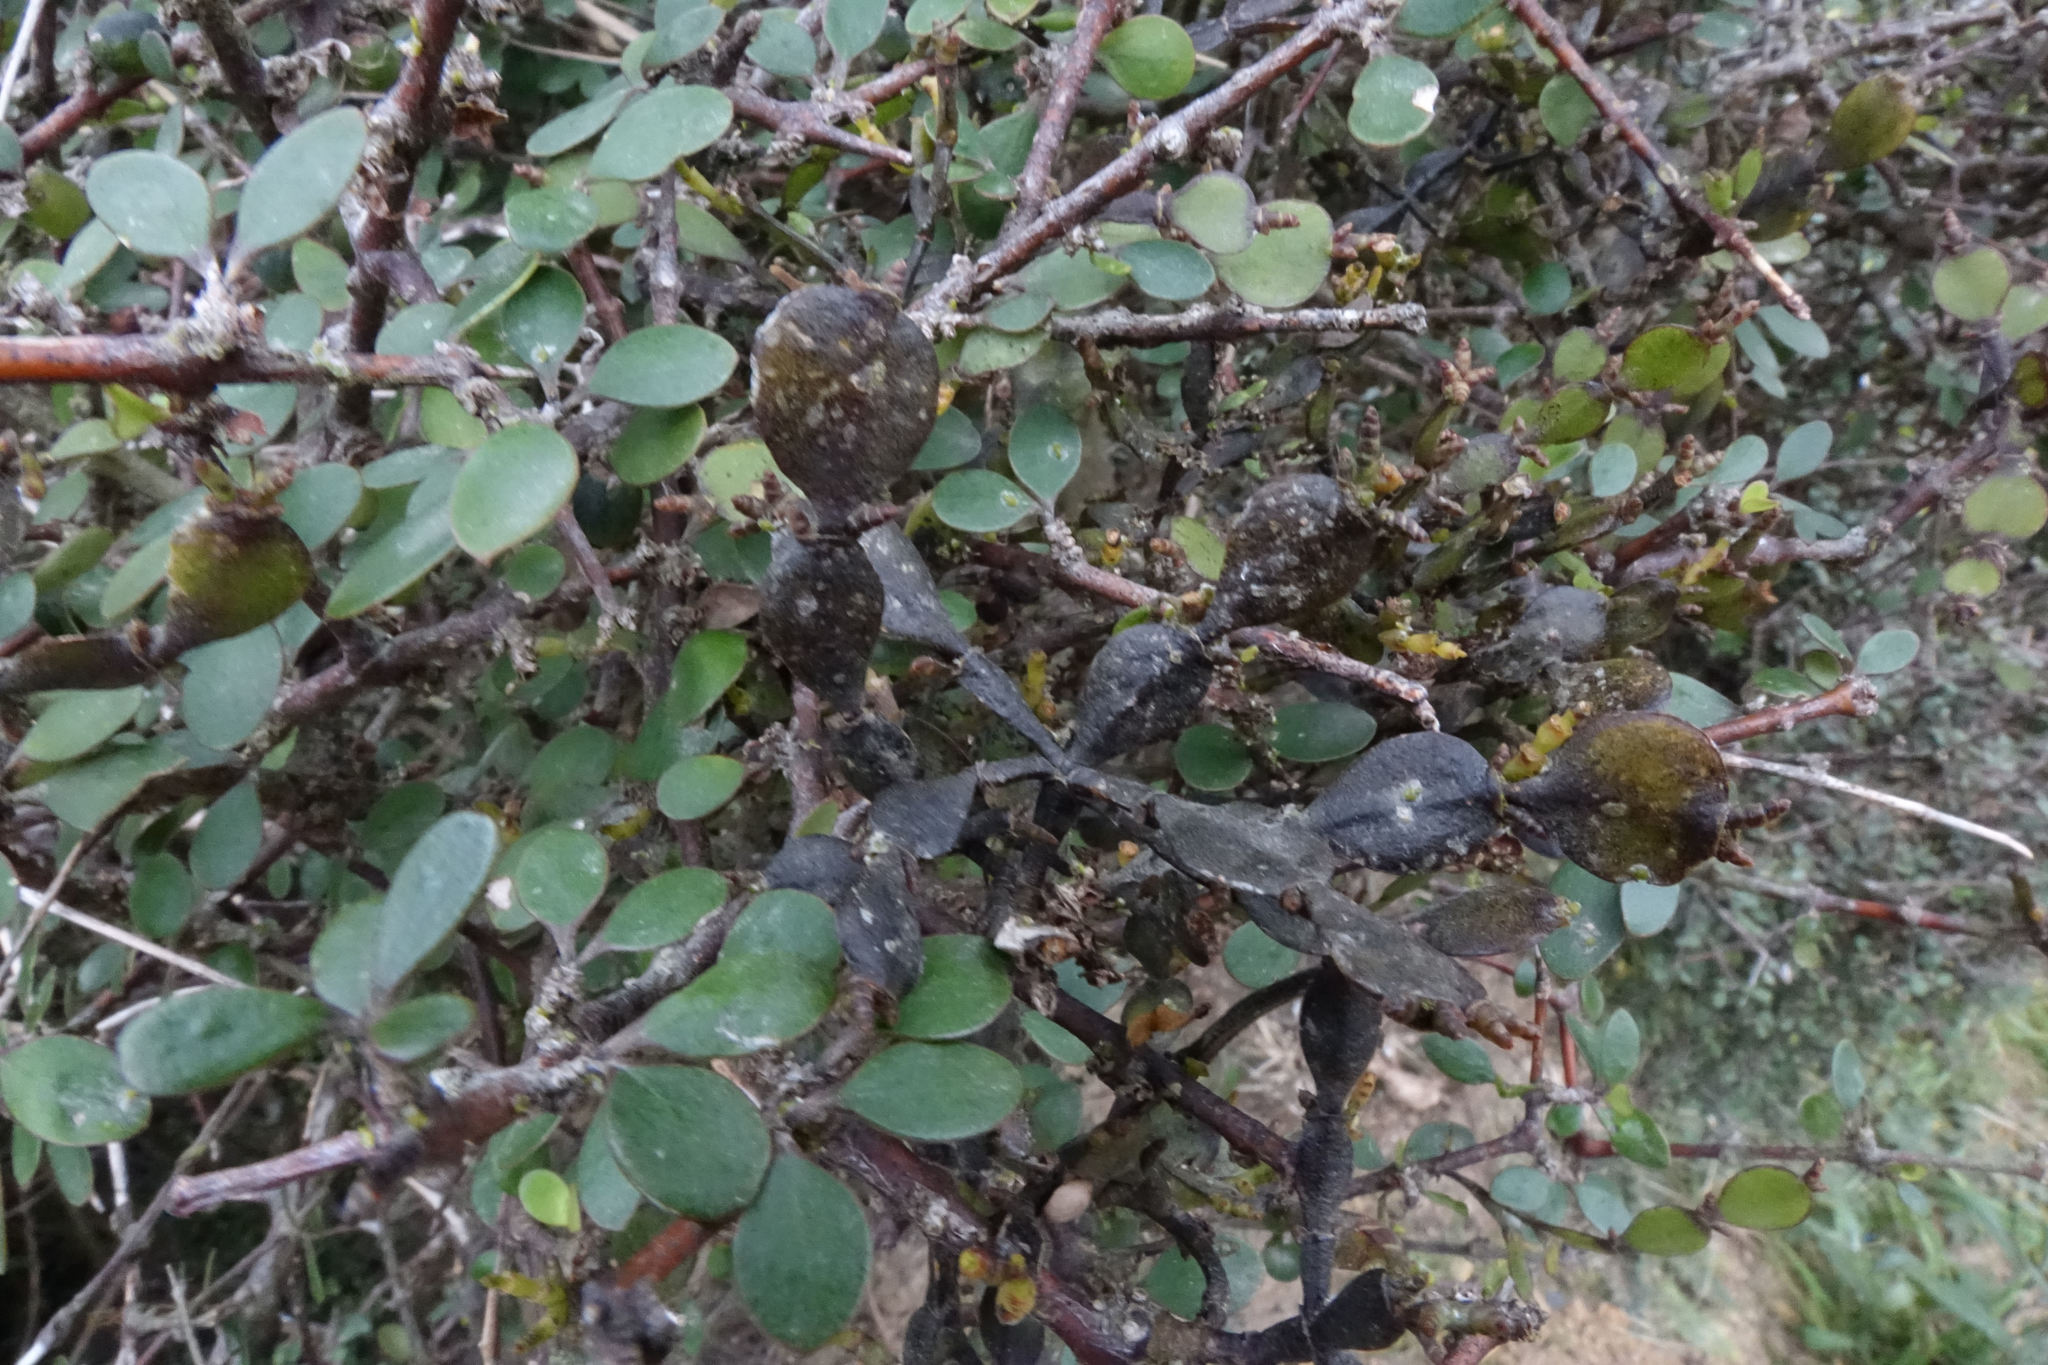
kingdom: Plantae
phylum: Tracheophyta
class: Magnoliopsida
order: Santalales
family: Viscaceae
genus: Korthalsella
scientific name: Korthalsella lindsayi
